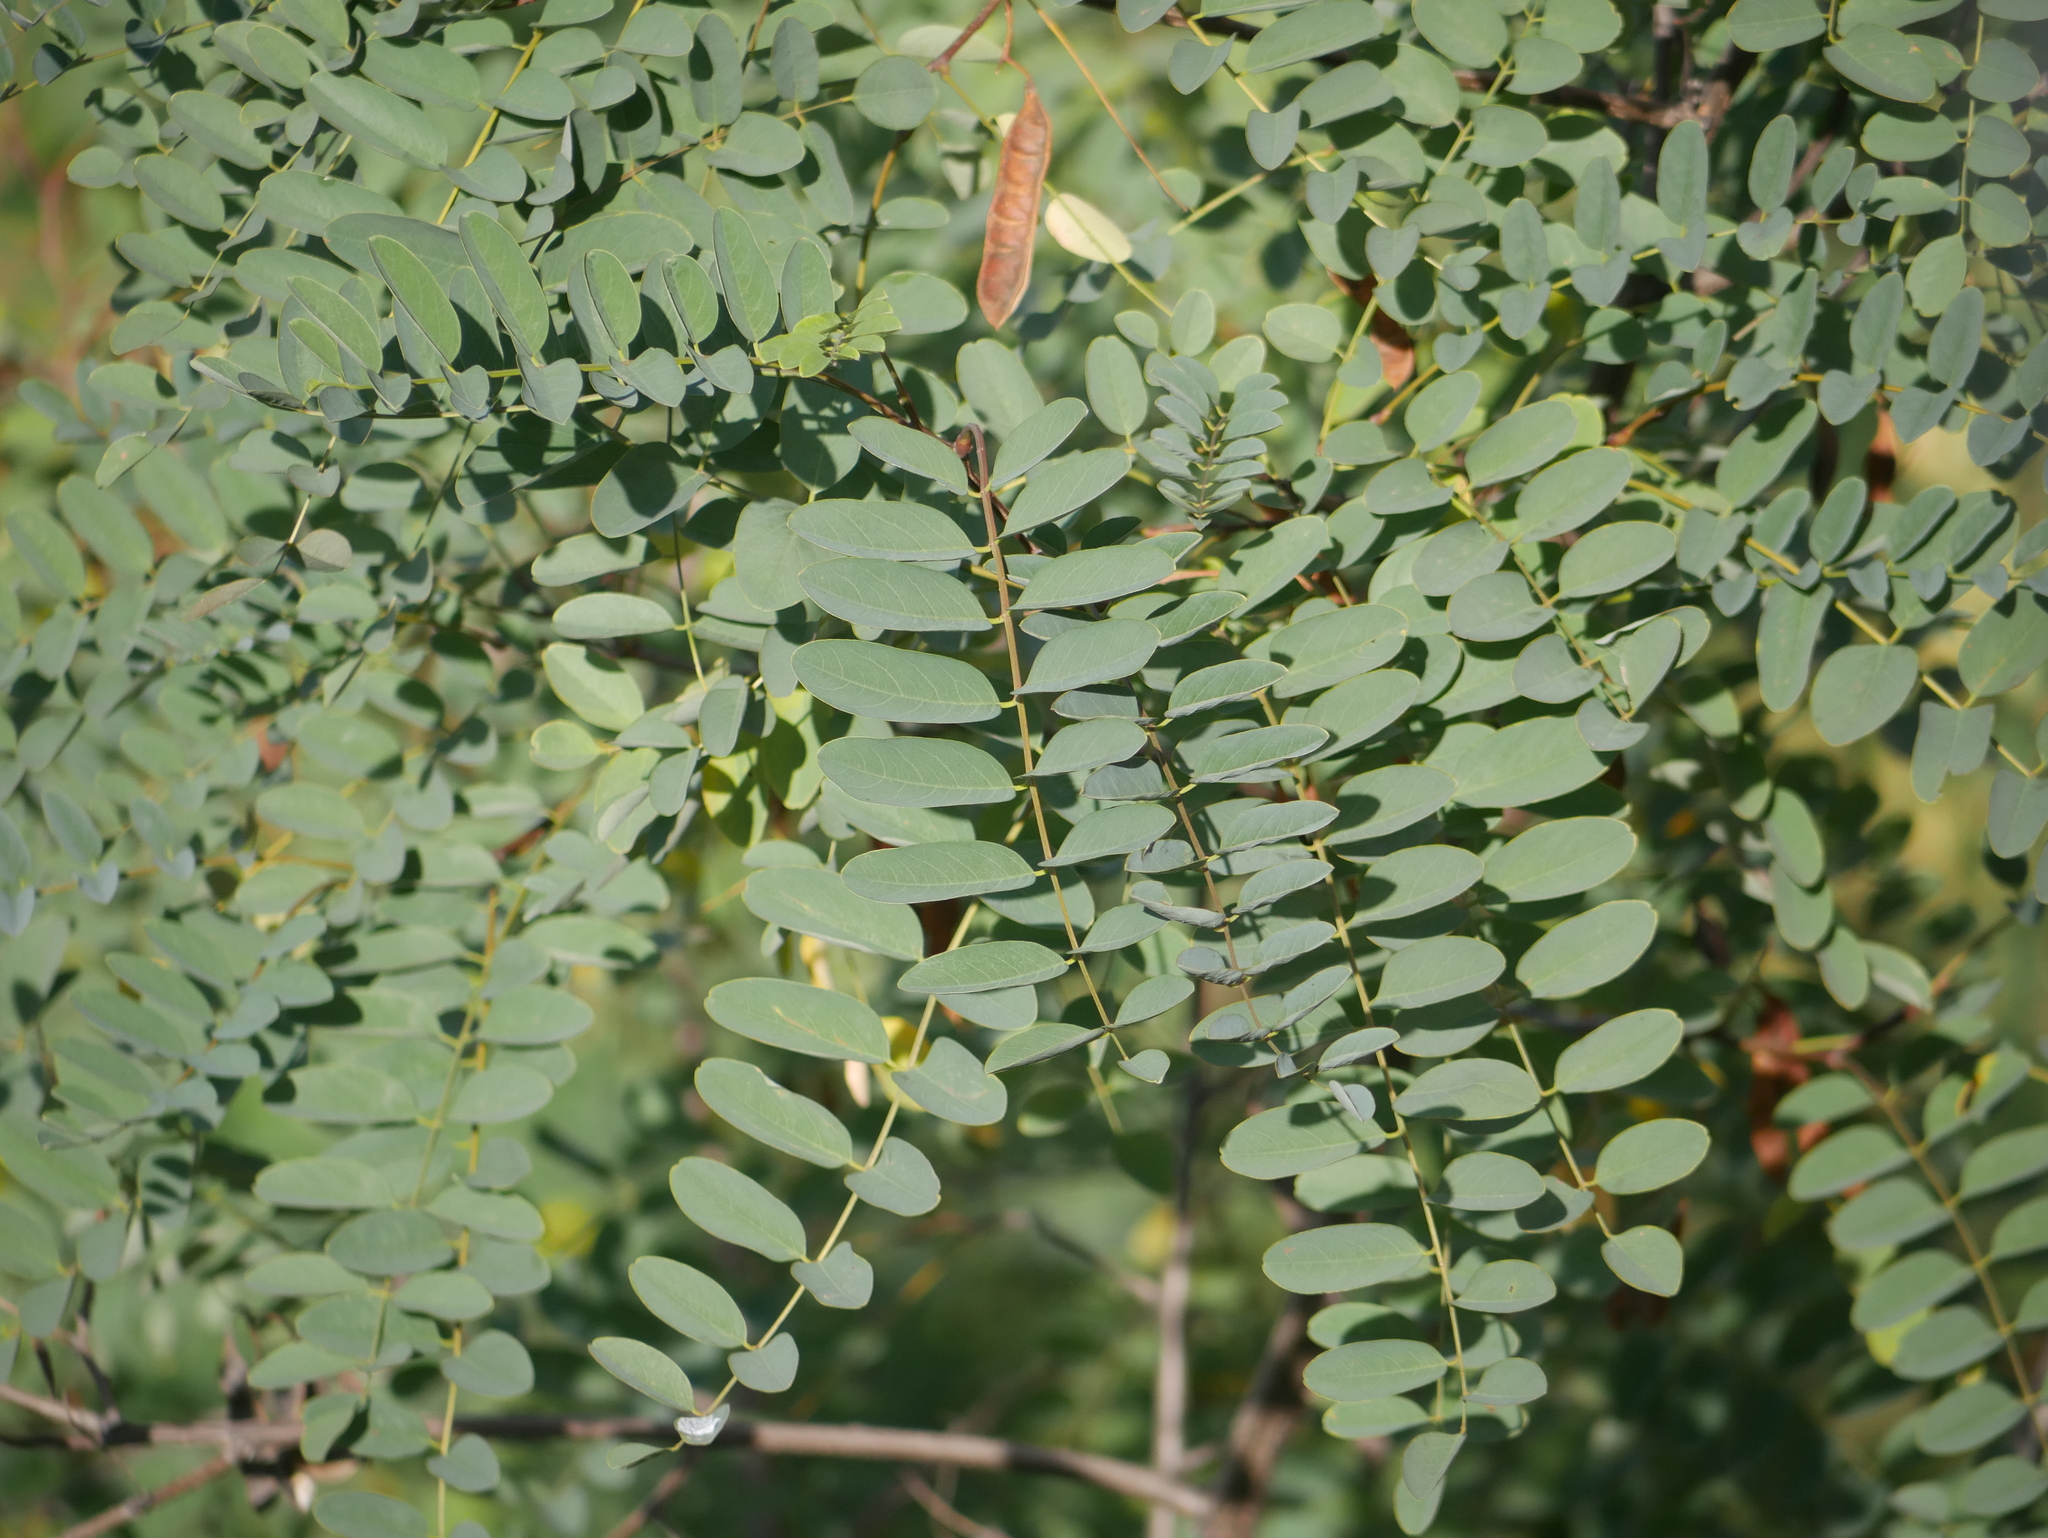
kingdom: Plantae
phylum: Tracheophyta
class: Magnoliopsida
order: Fabales
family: Fabaceae
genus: Robinia
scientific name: Robinia pseudoacacia
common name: Black locust
